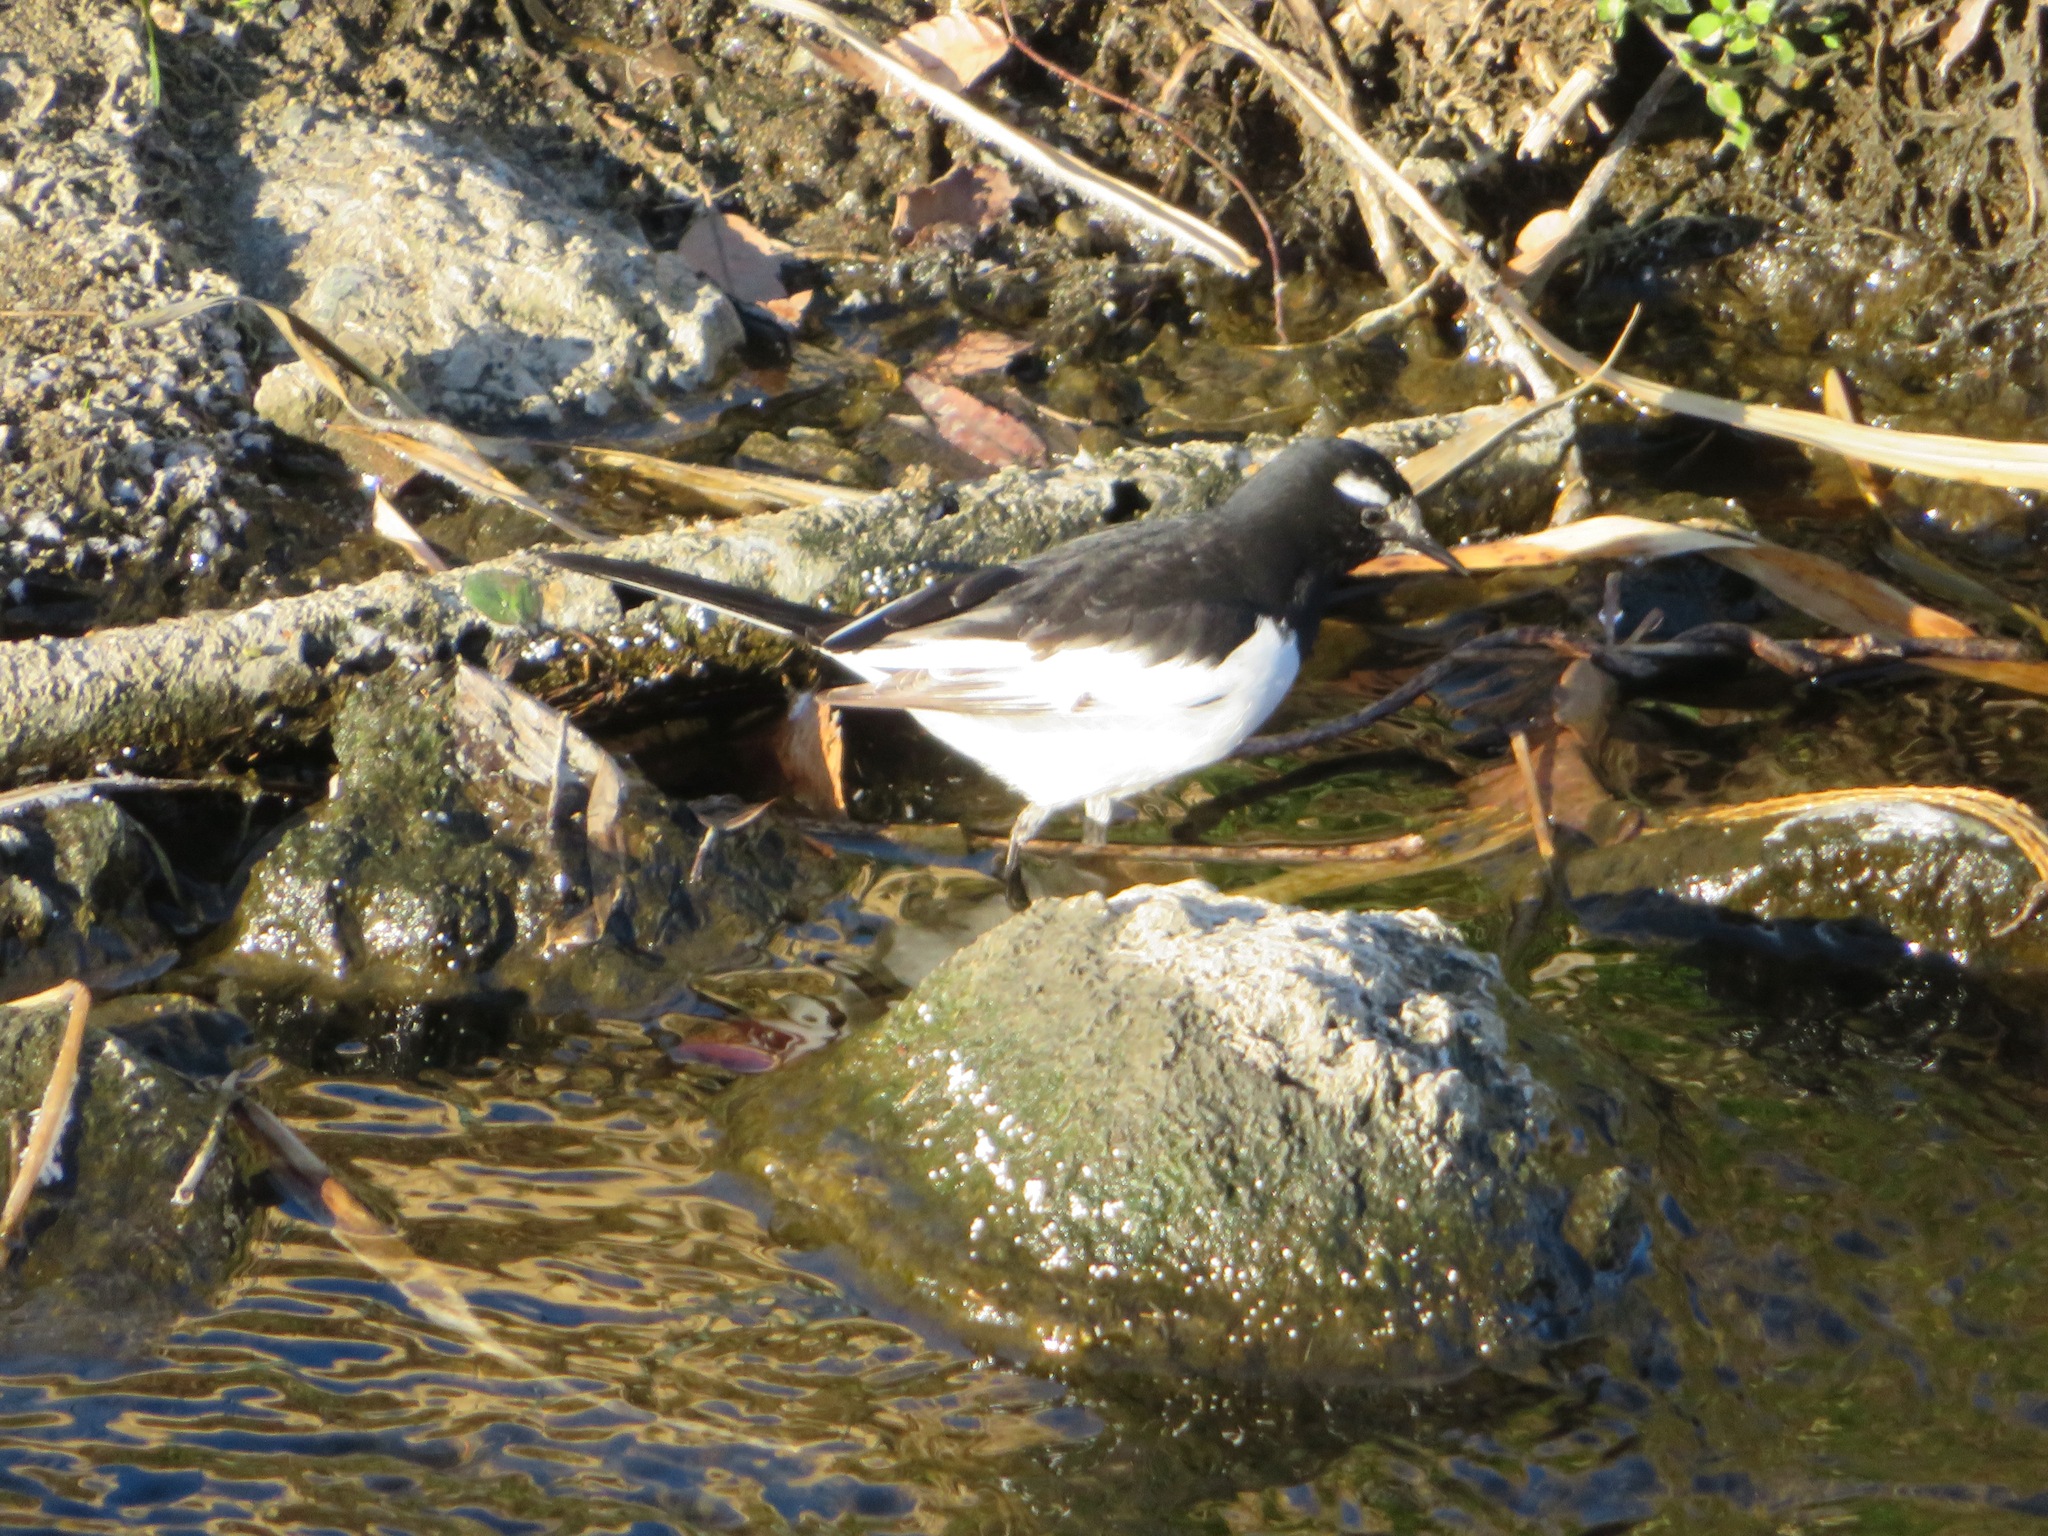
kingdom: Animalia
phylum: Chordata
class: Aves
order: Passeriformes
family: Motacillidae
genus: Motacilla
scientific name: Motacilla grandis
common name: Japanese wagtail
